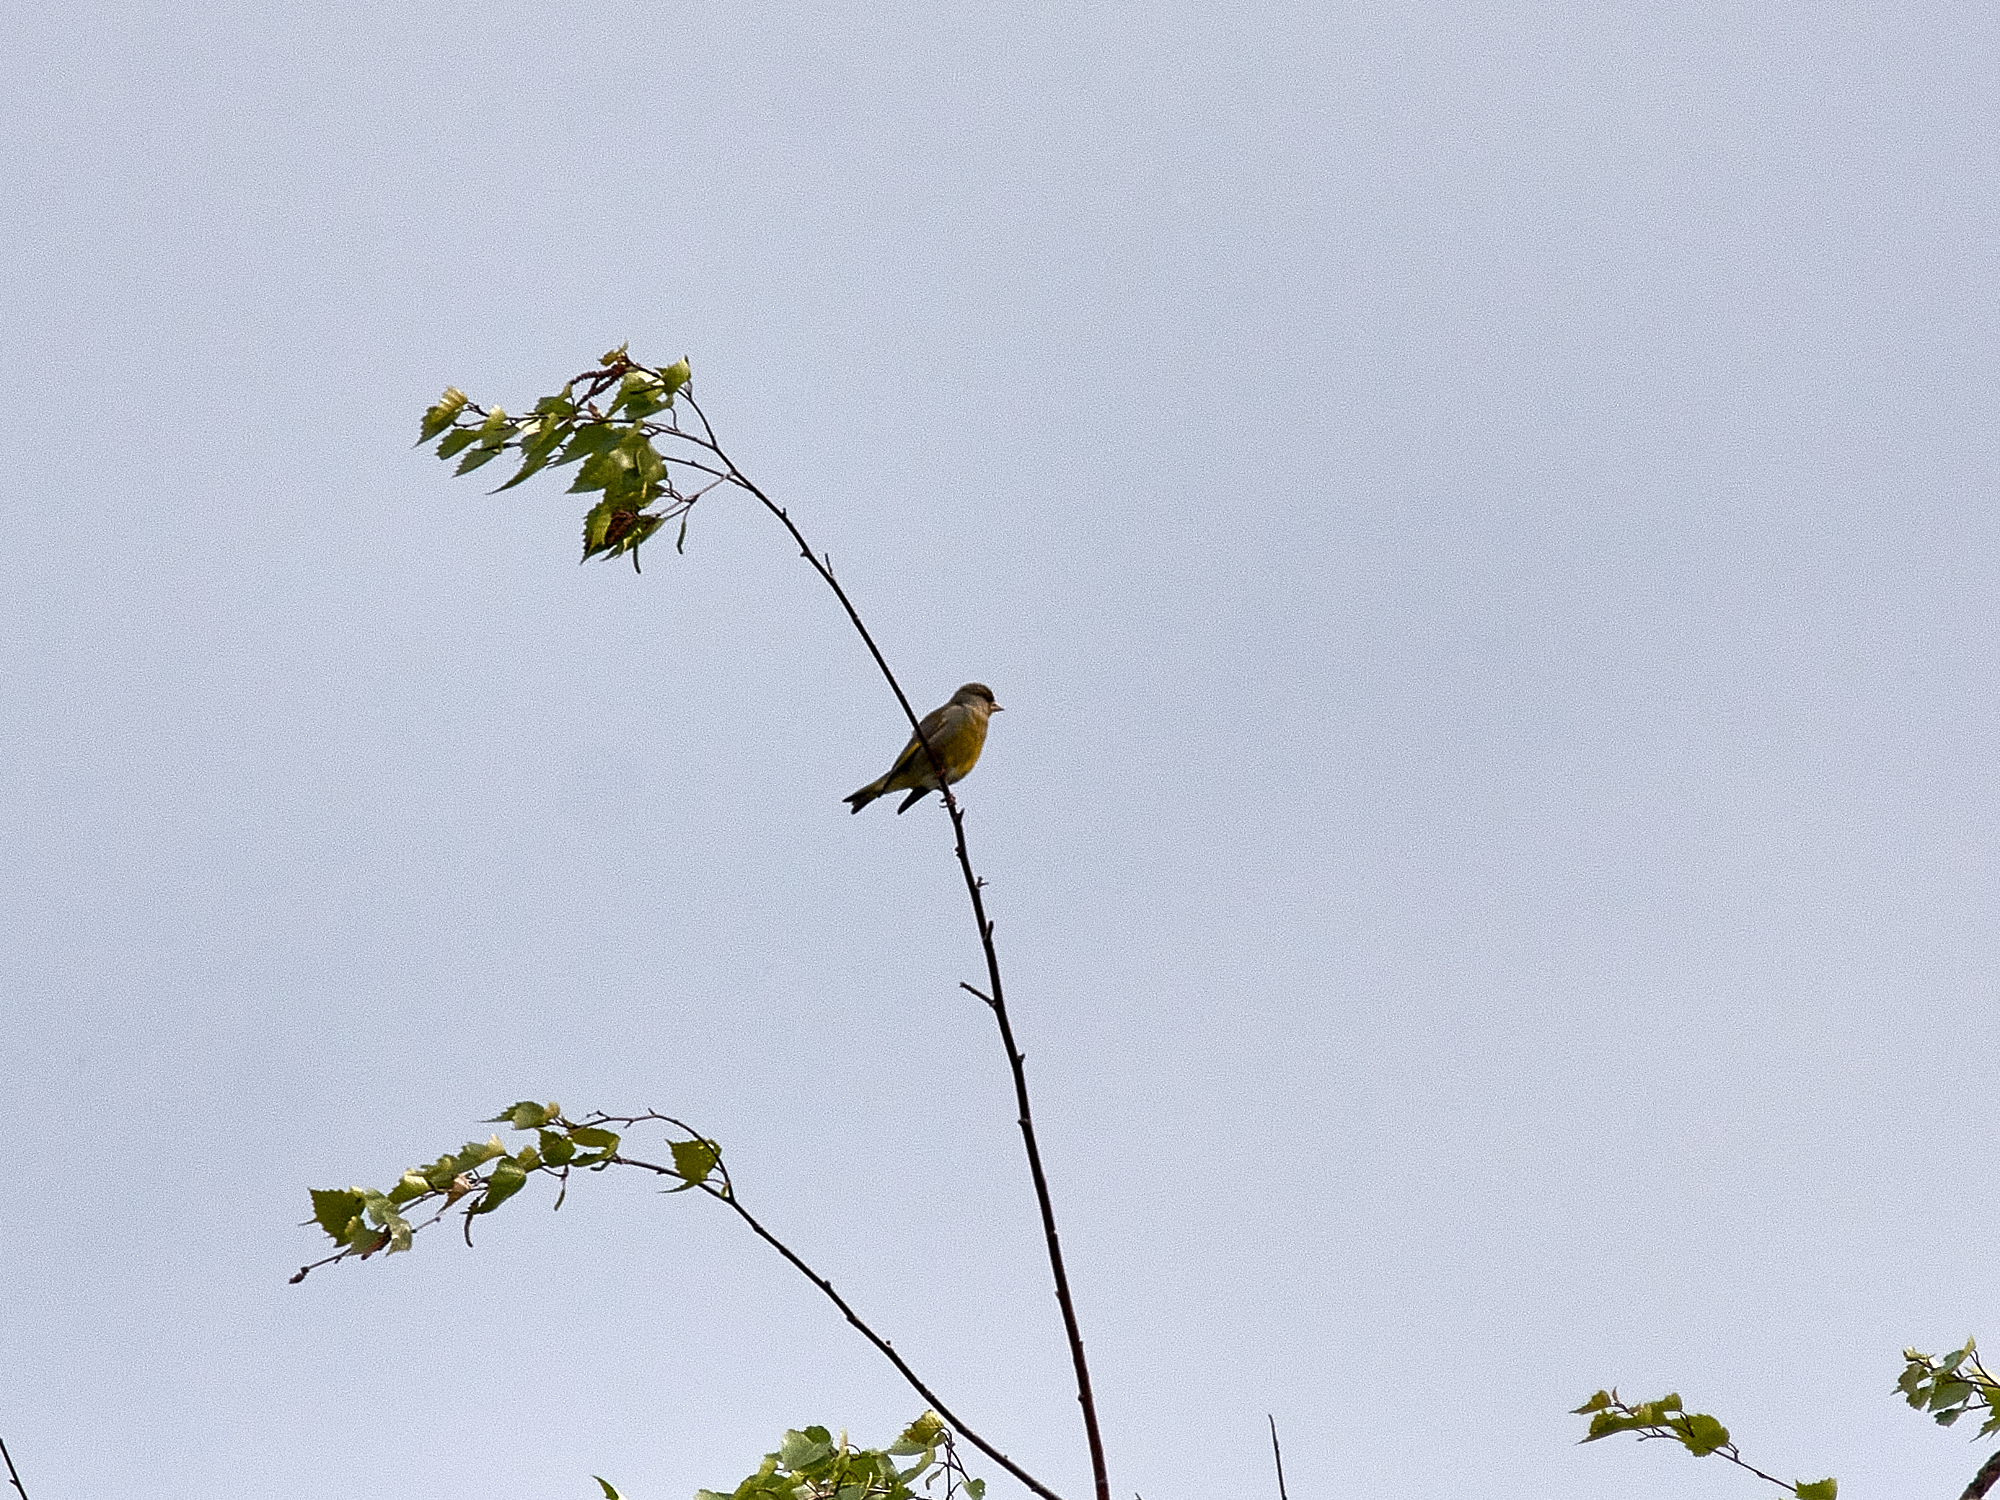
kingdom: Plantae
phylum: Tracheophyta
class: Liliopsida
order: Poales
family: Poaceae
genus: Chloris
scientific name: Chloris chloris
